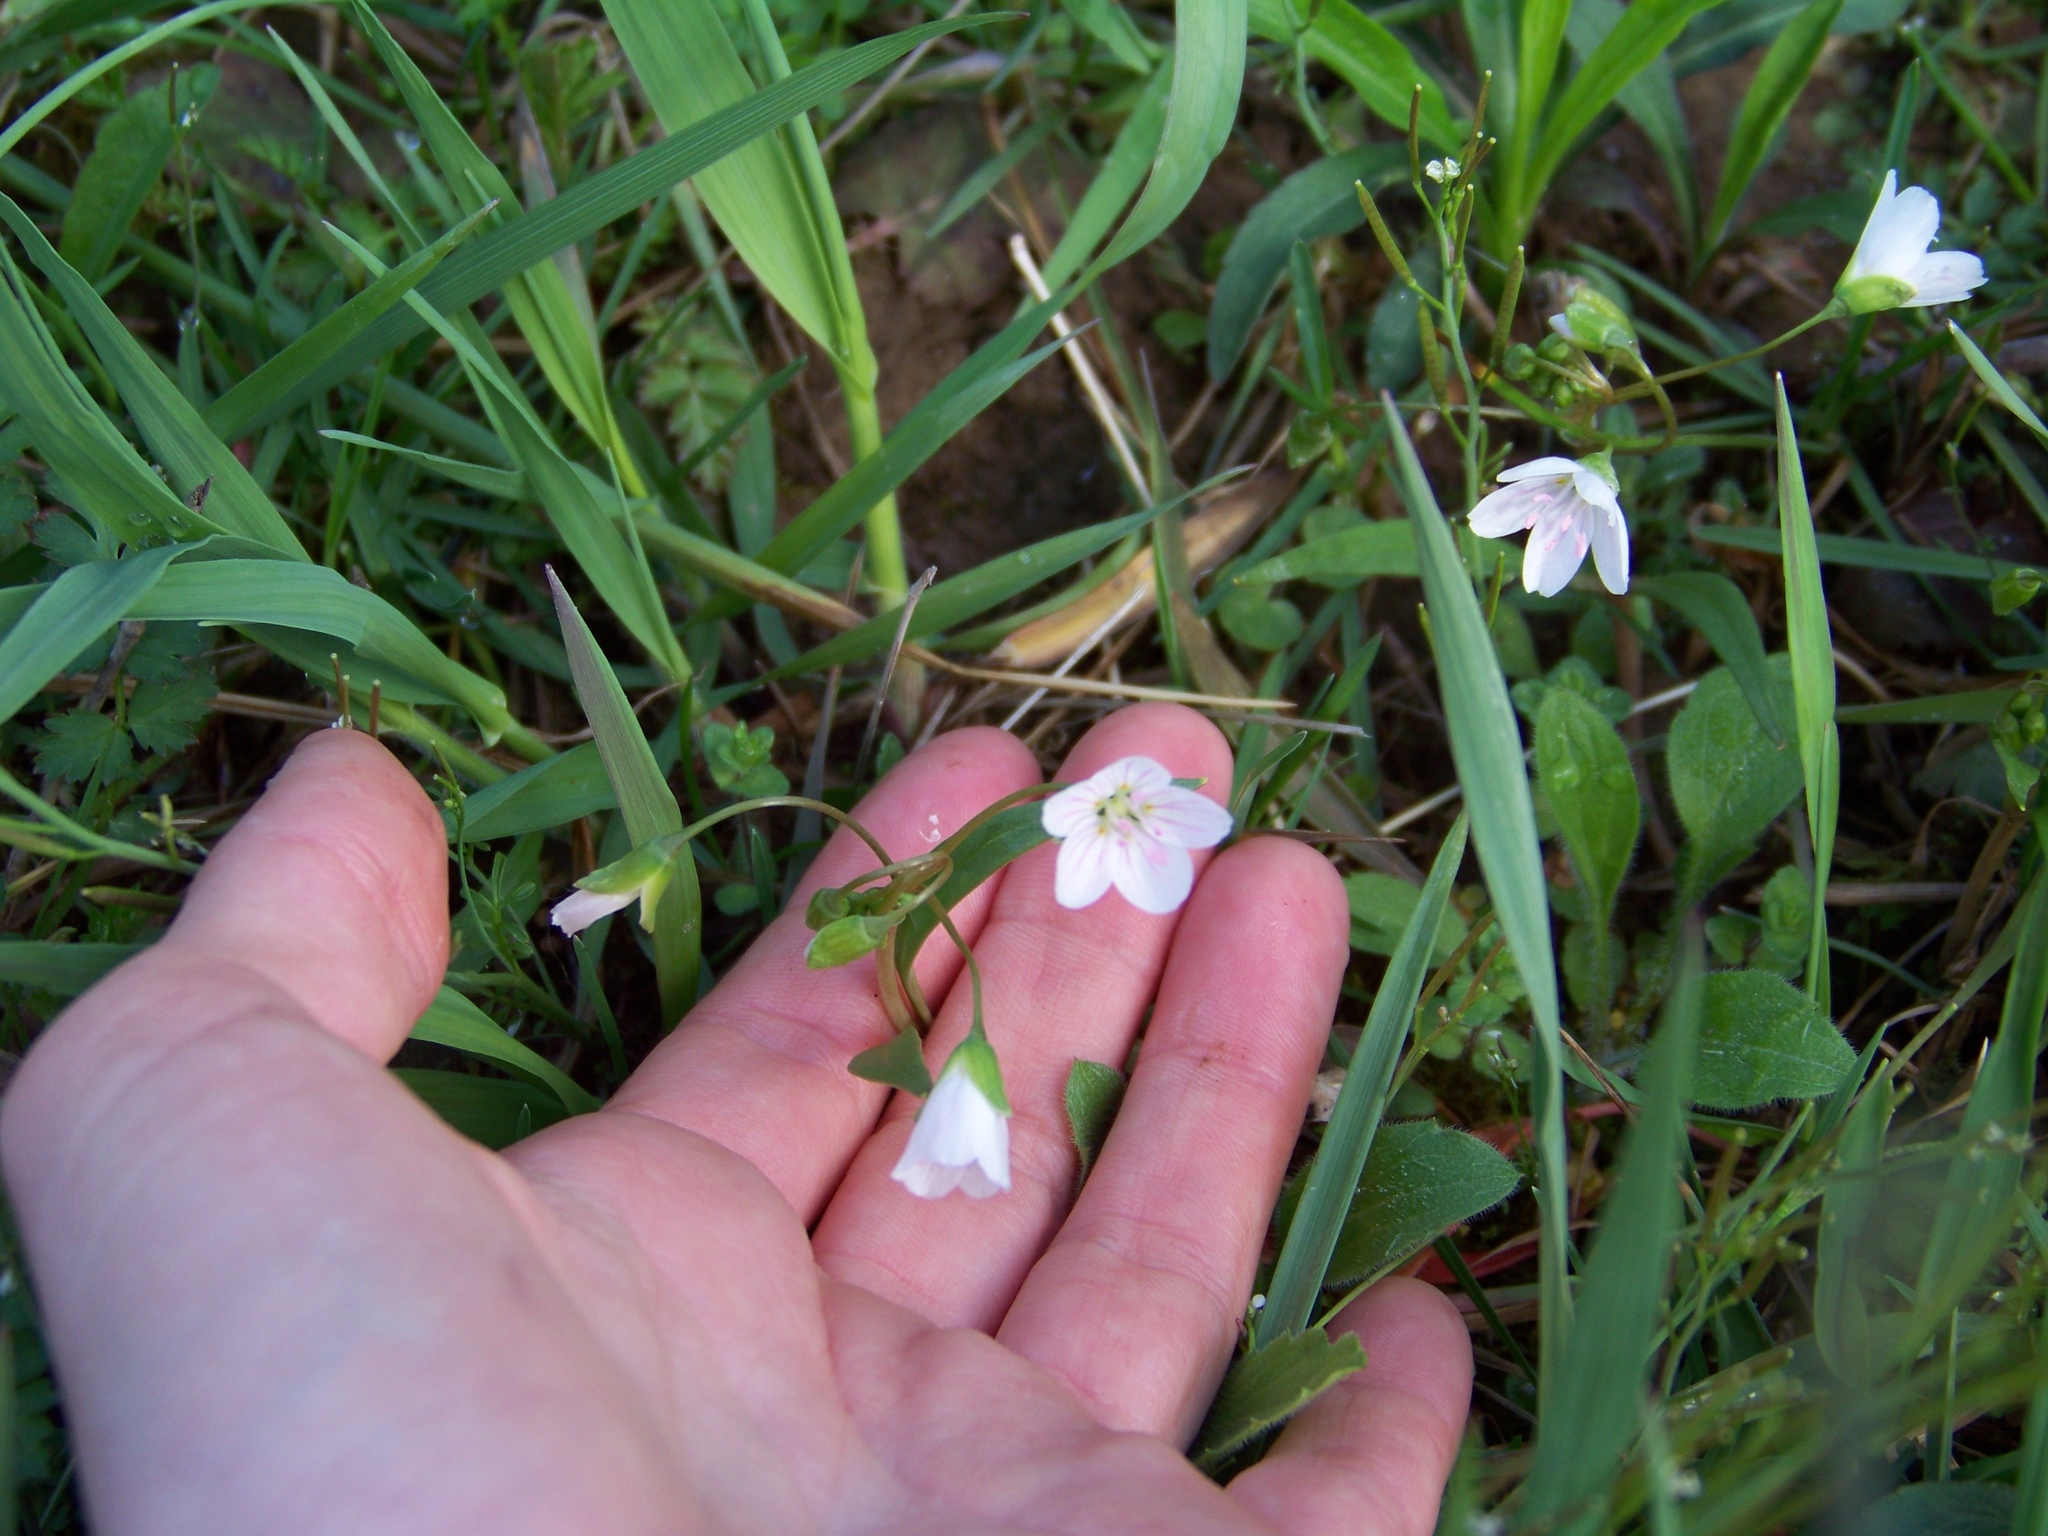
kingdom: Plantae
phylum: Tracheophyta
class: Magnoliopsida
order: Caryophyllales
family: Montiaceae
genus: Claytonia
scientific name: Claytonia virginica
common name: Virginia springbeauty
